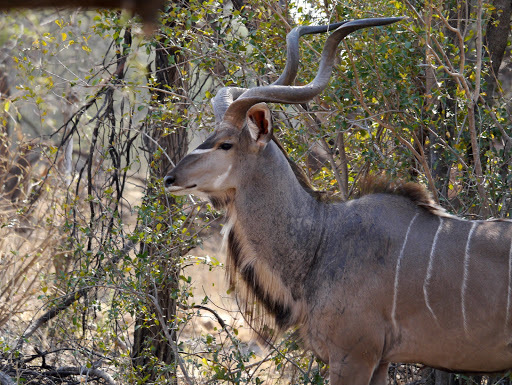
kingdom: Animalia
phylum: Chordata
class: Mammalia
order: Artiodactyla
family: Bovidae
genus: Tragelaphus
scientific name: Tragelaphus strepsiceros
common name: Greater kudu
